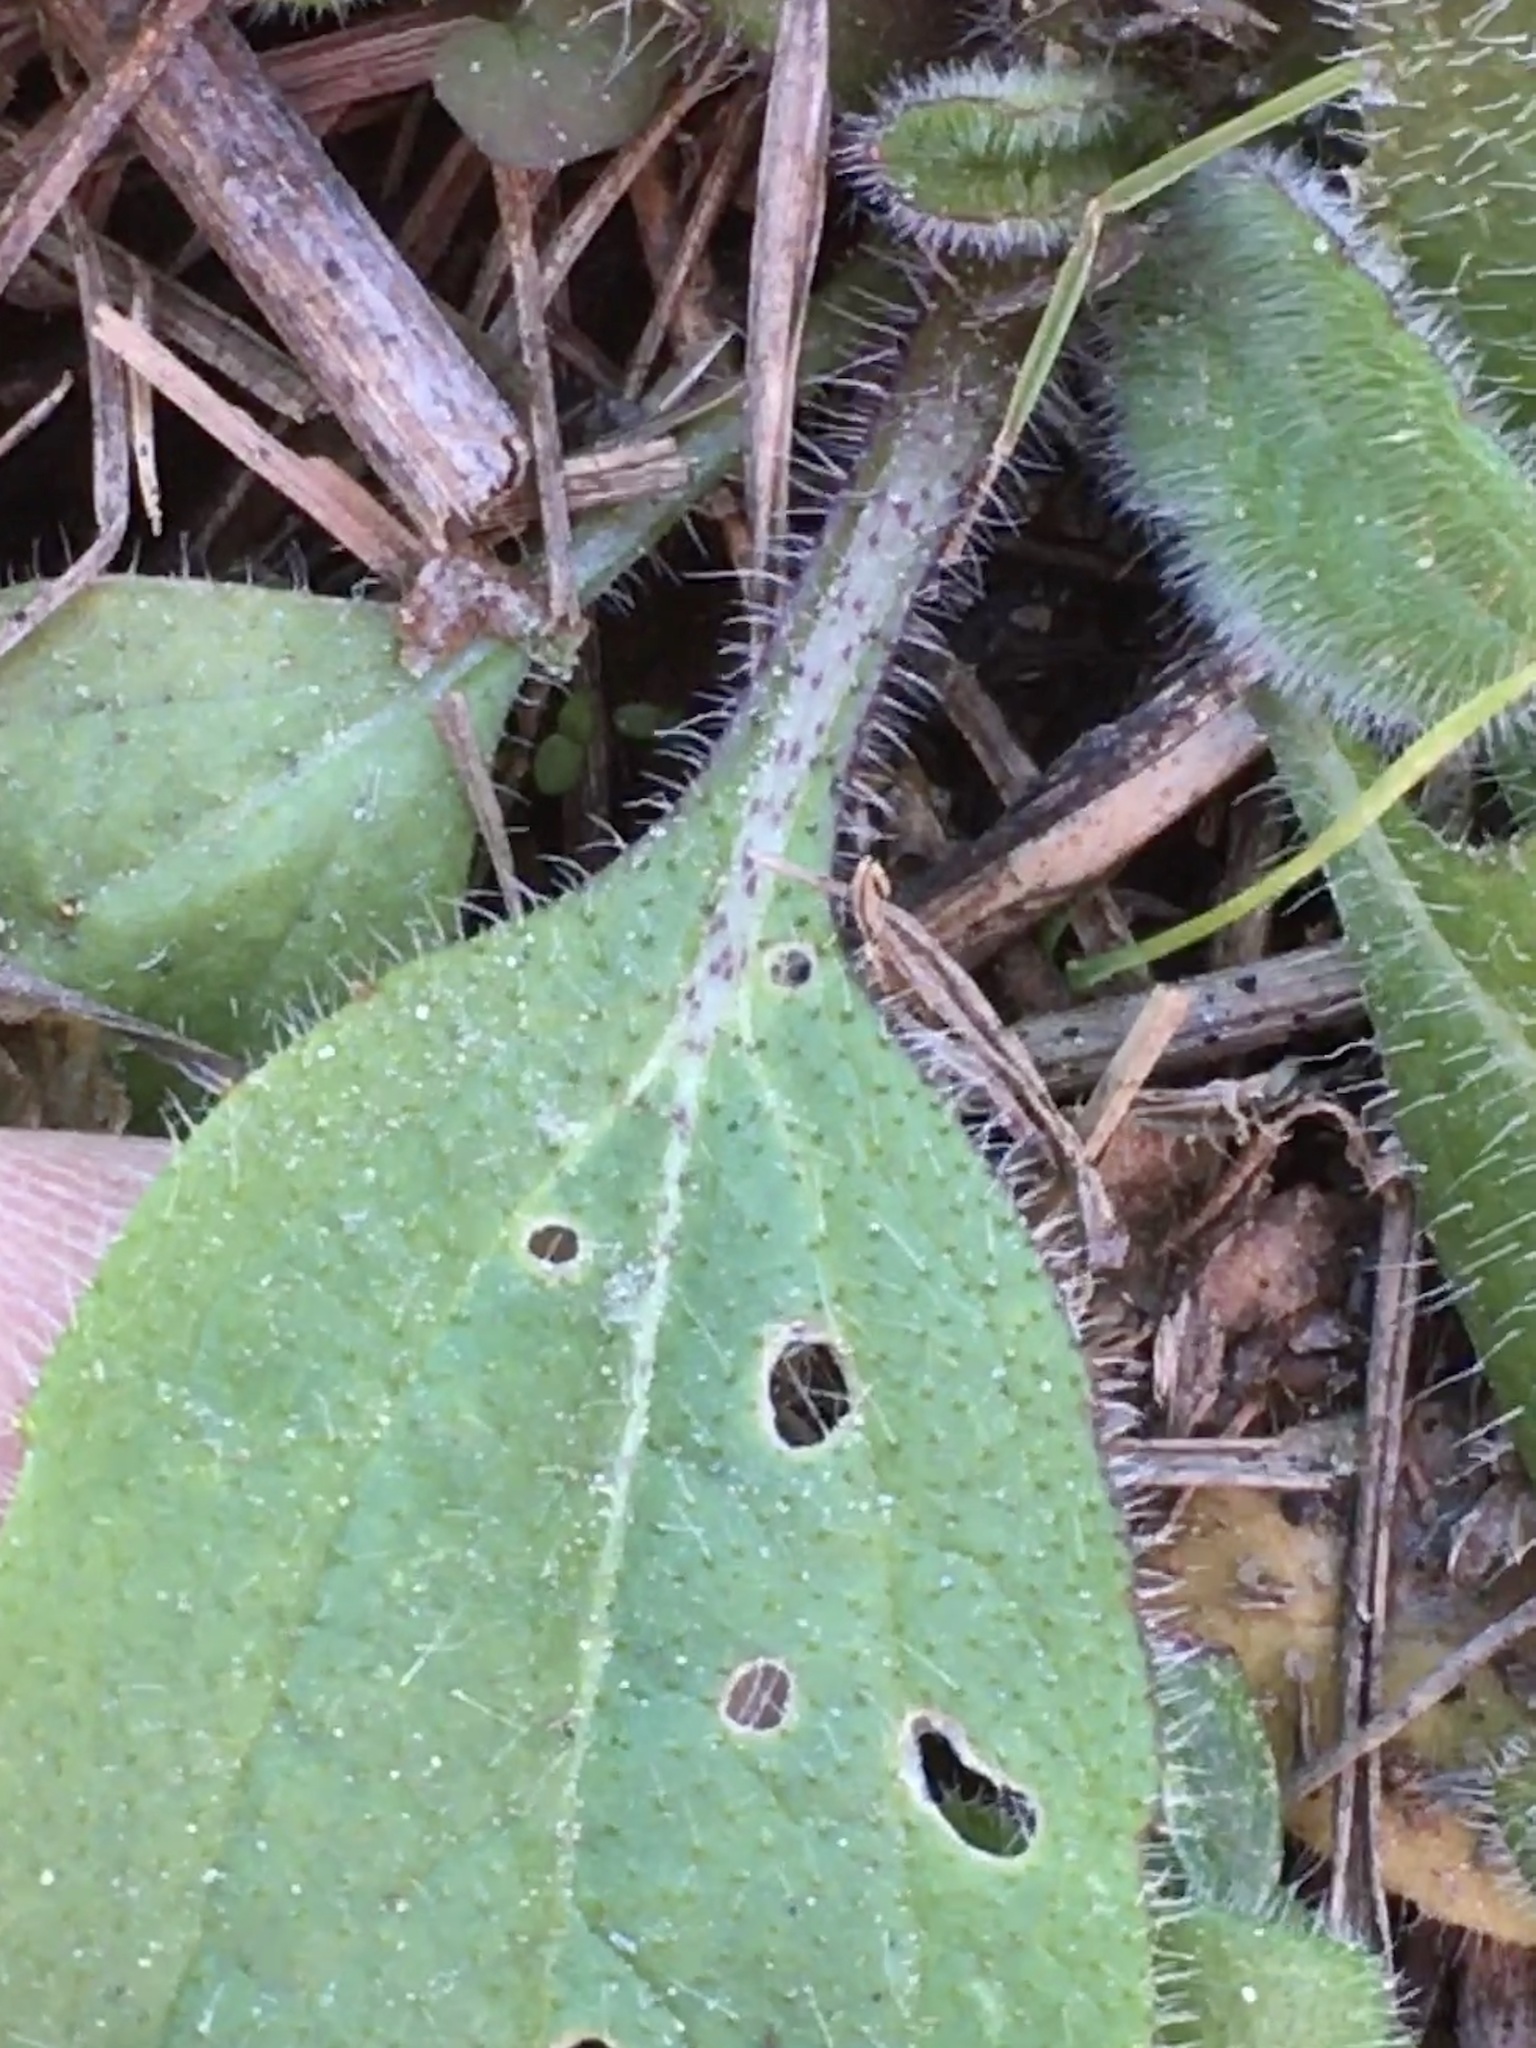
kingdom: Plantae
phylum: Tracheophyta
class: Magnoliopsida
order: Asterales
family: Asteraceae
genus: Rudbeckia
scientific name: Rudbeckia hirta
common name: Black-eyed-susan
